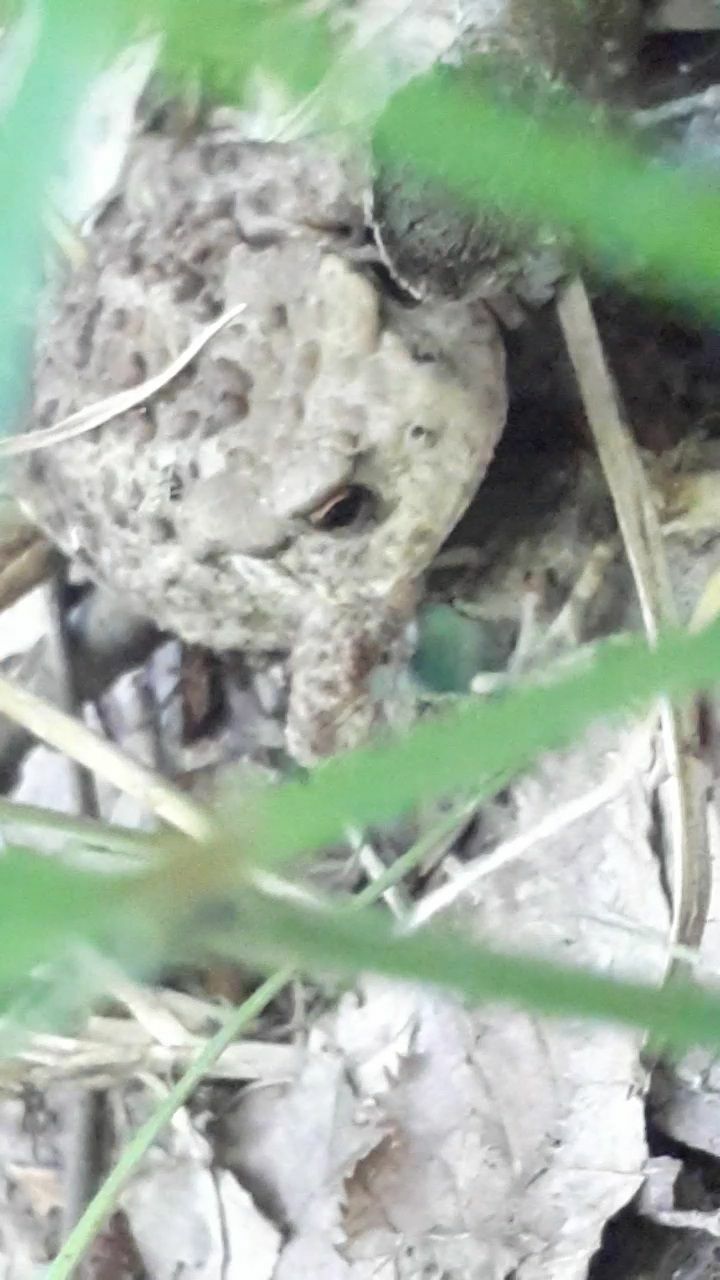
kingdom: Animalia
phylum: Chordata
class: Amphibia
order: Anura
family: Bufonidae
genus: Bufo
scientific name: Bufo bufo
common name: Common toad
